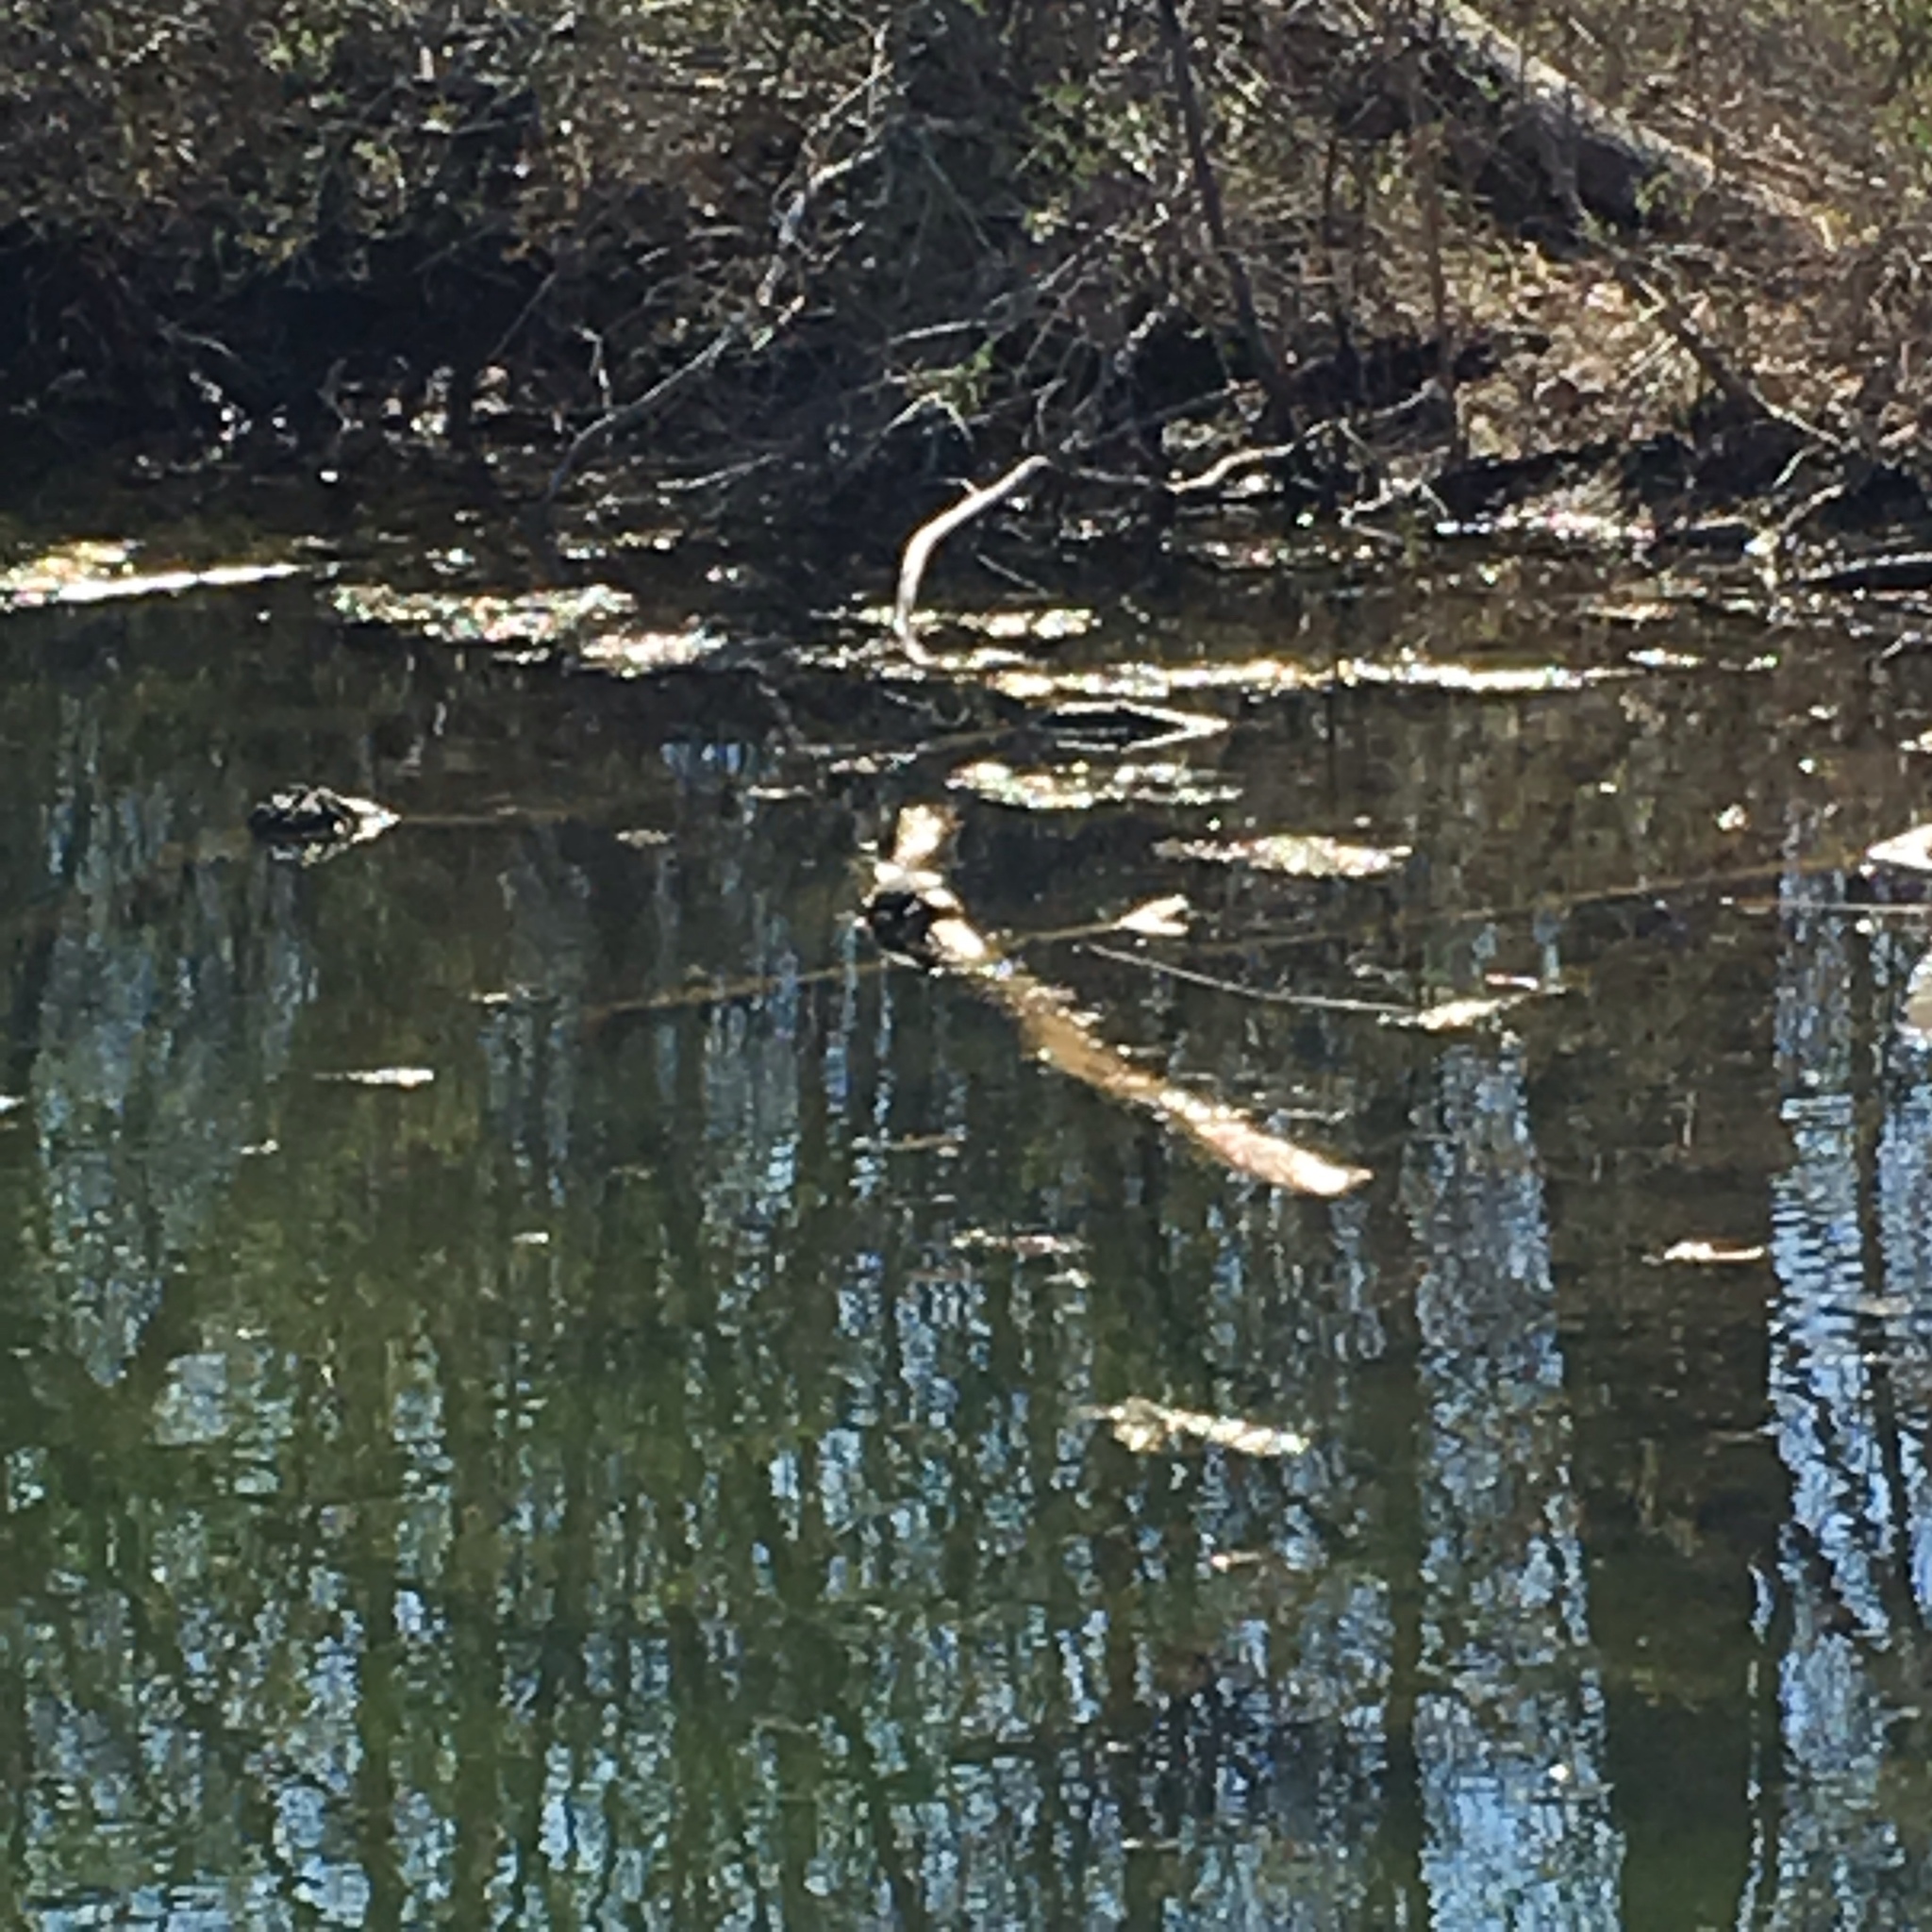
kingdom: Animalia
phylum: Chordata
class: Testudines
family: Emydidae
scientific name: Emydidae
